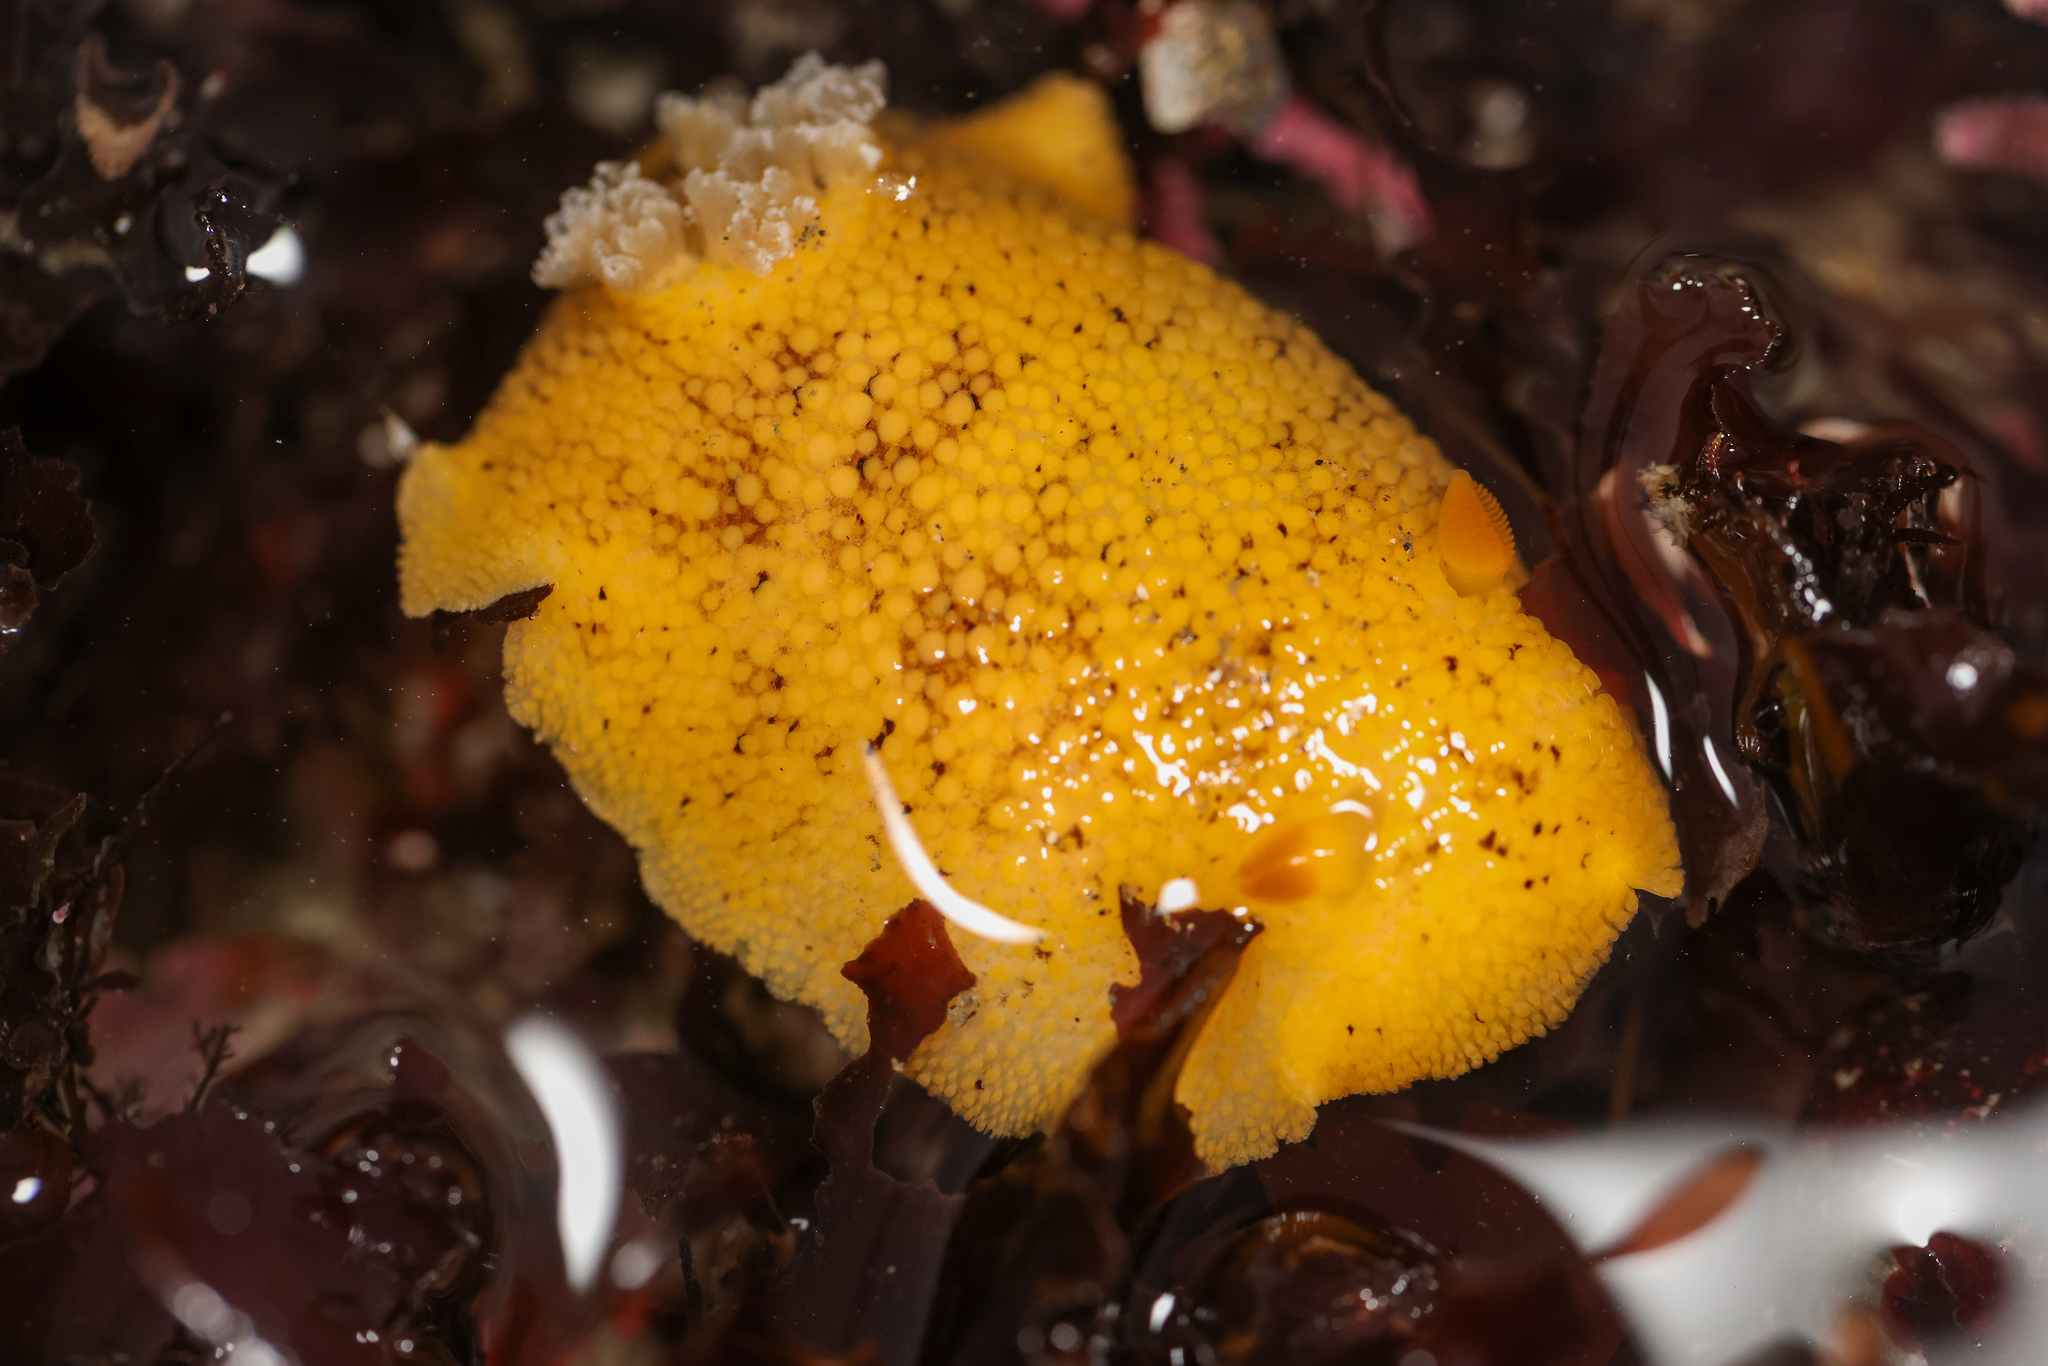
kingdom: Animalia
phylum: Mollusca
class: Gastropoda
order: Nudibranchia
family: Discodorididae
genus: Peltodoris
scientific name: Peltodoris nobilis
